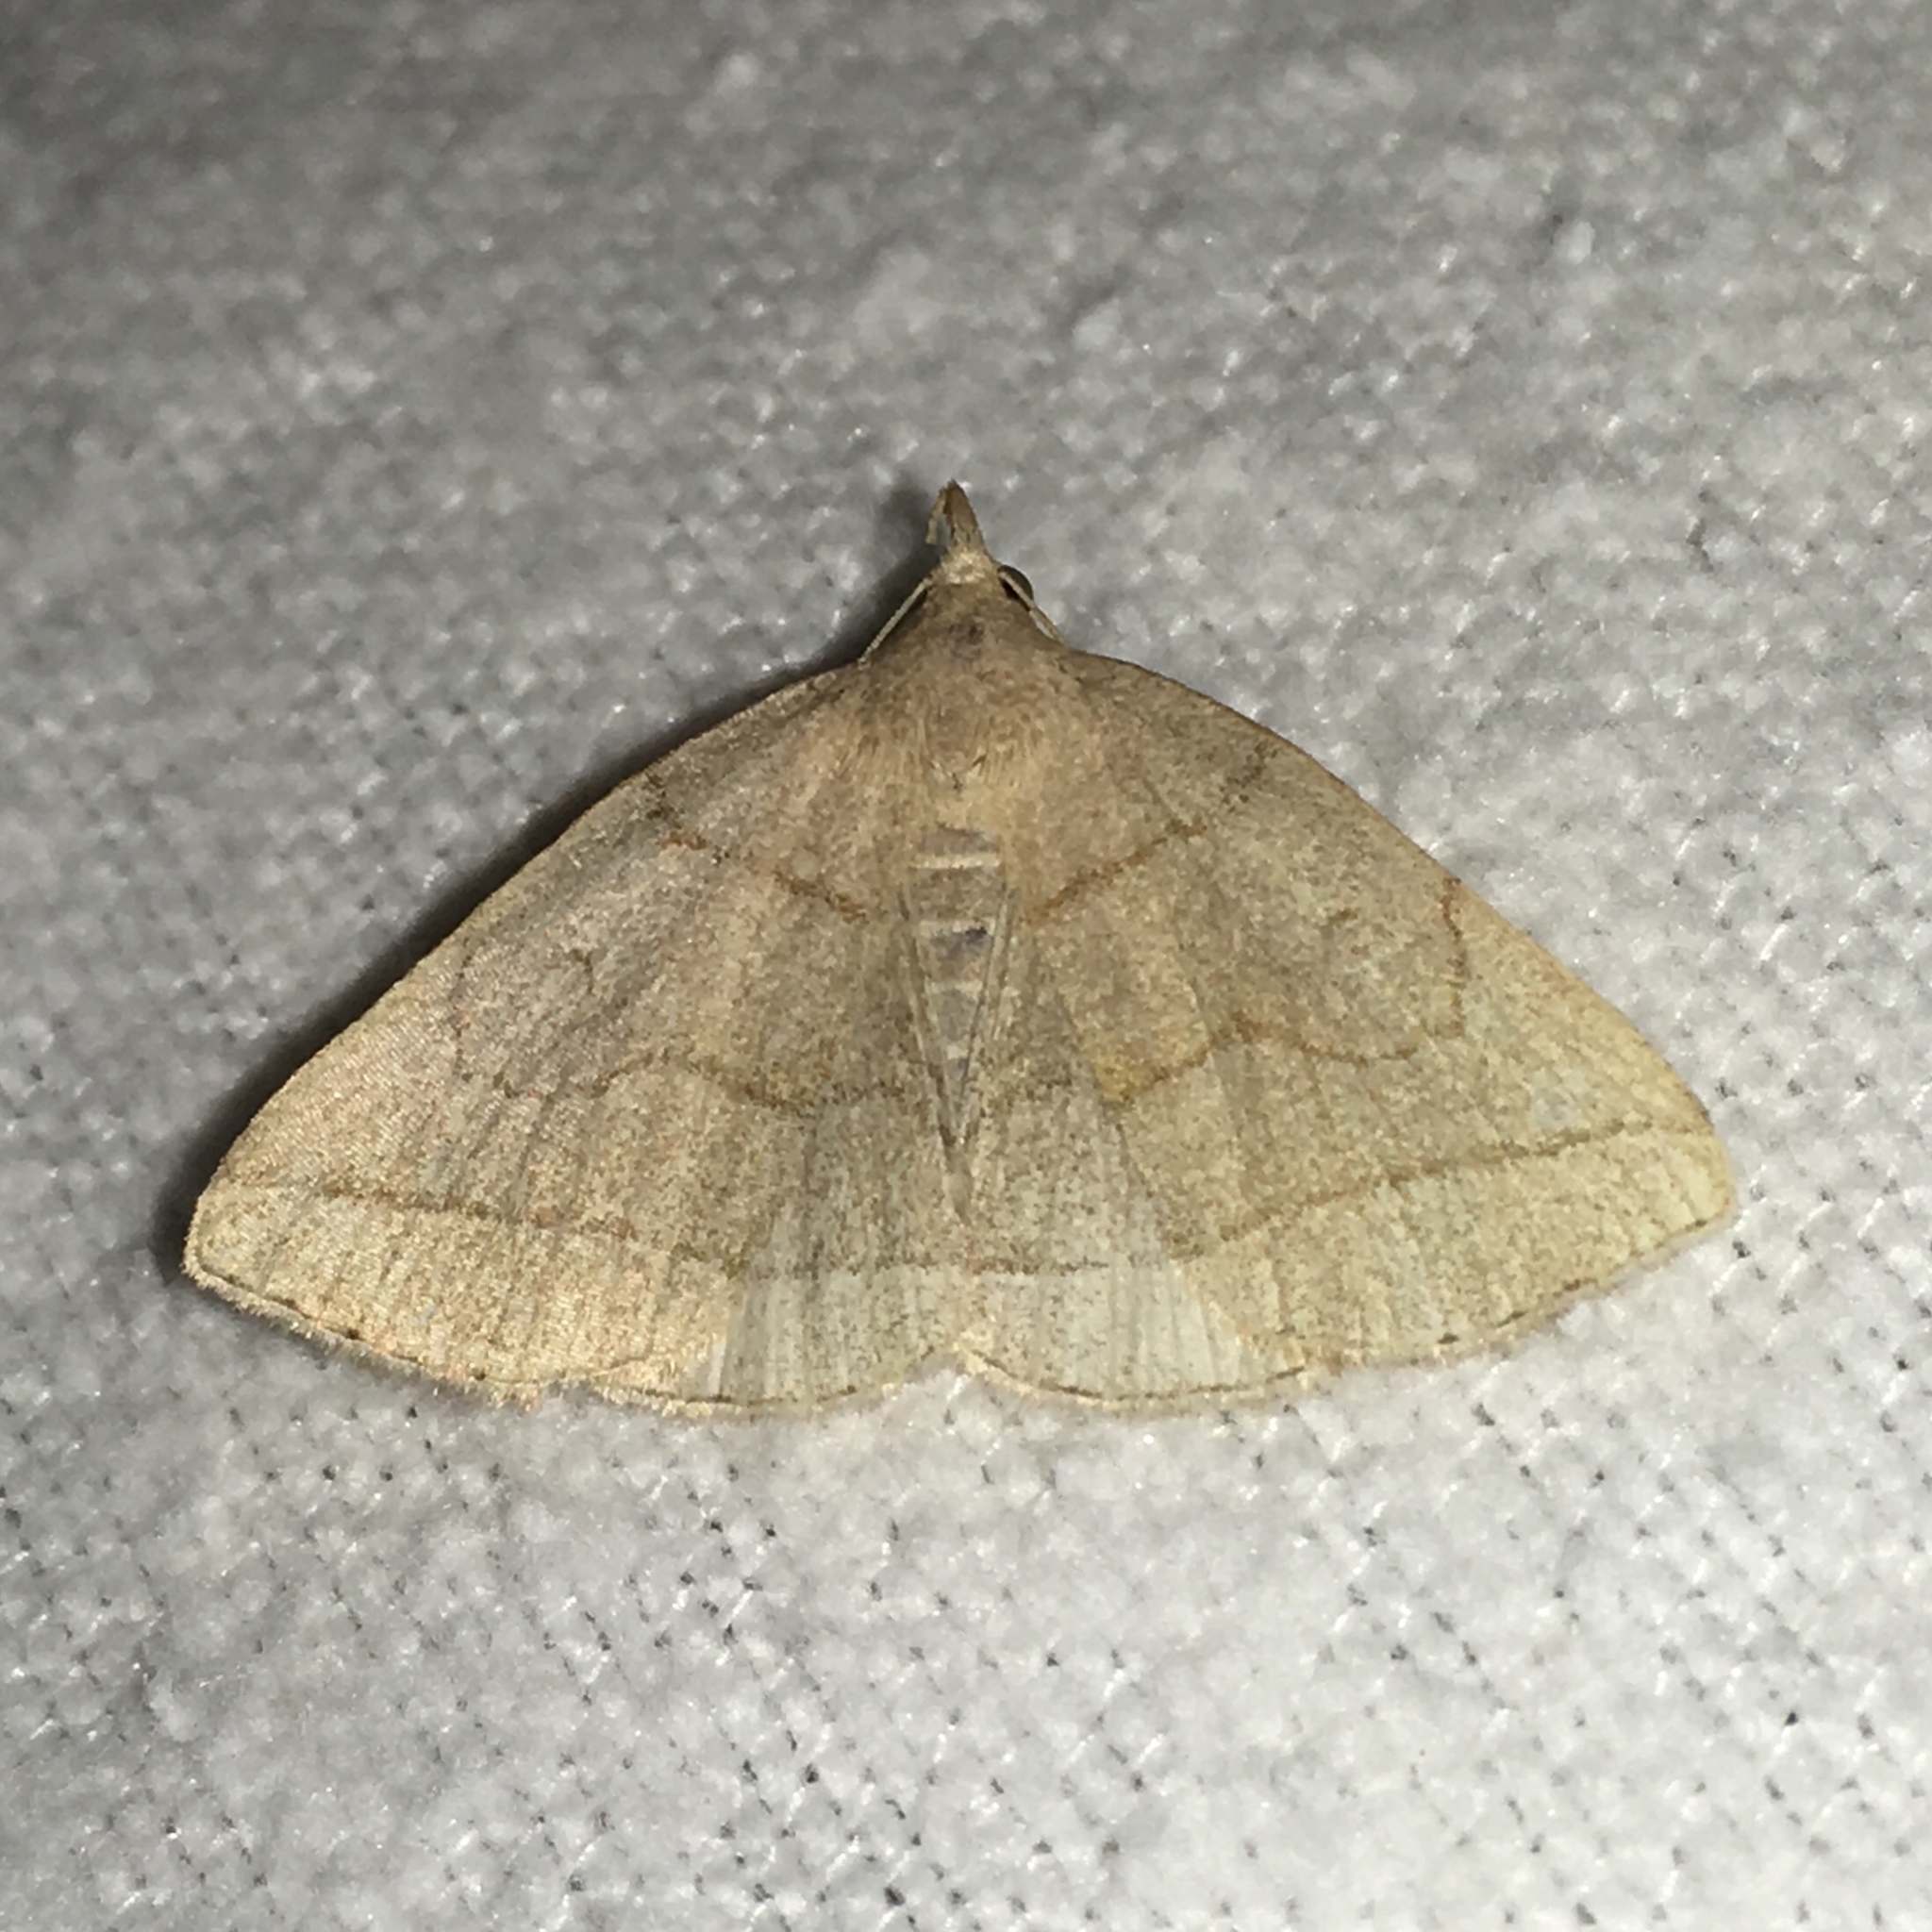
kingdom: Animalia
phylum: Arthropoda
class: Insecta
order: Lepidoptera
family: Erebidae
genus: Zanclognatha
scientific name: Zanclognatha cruralis
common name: Early fan-foot
